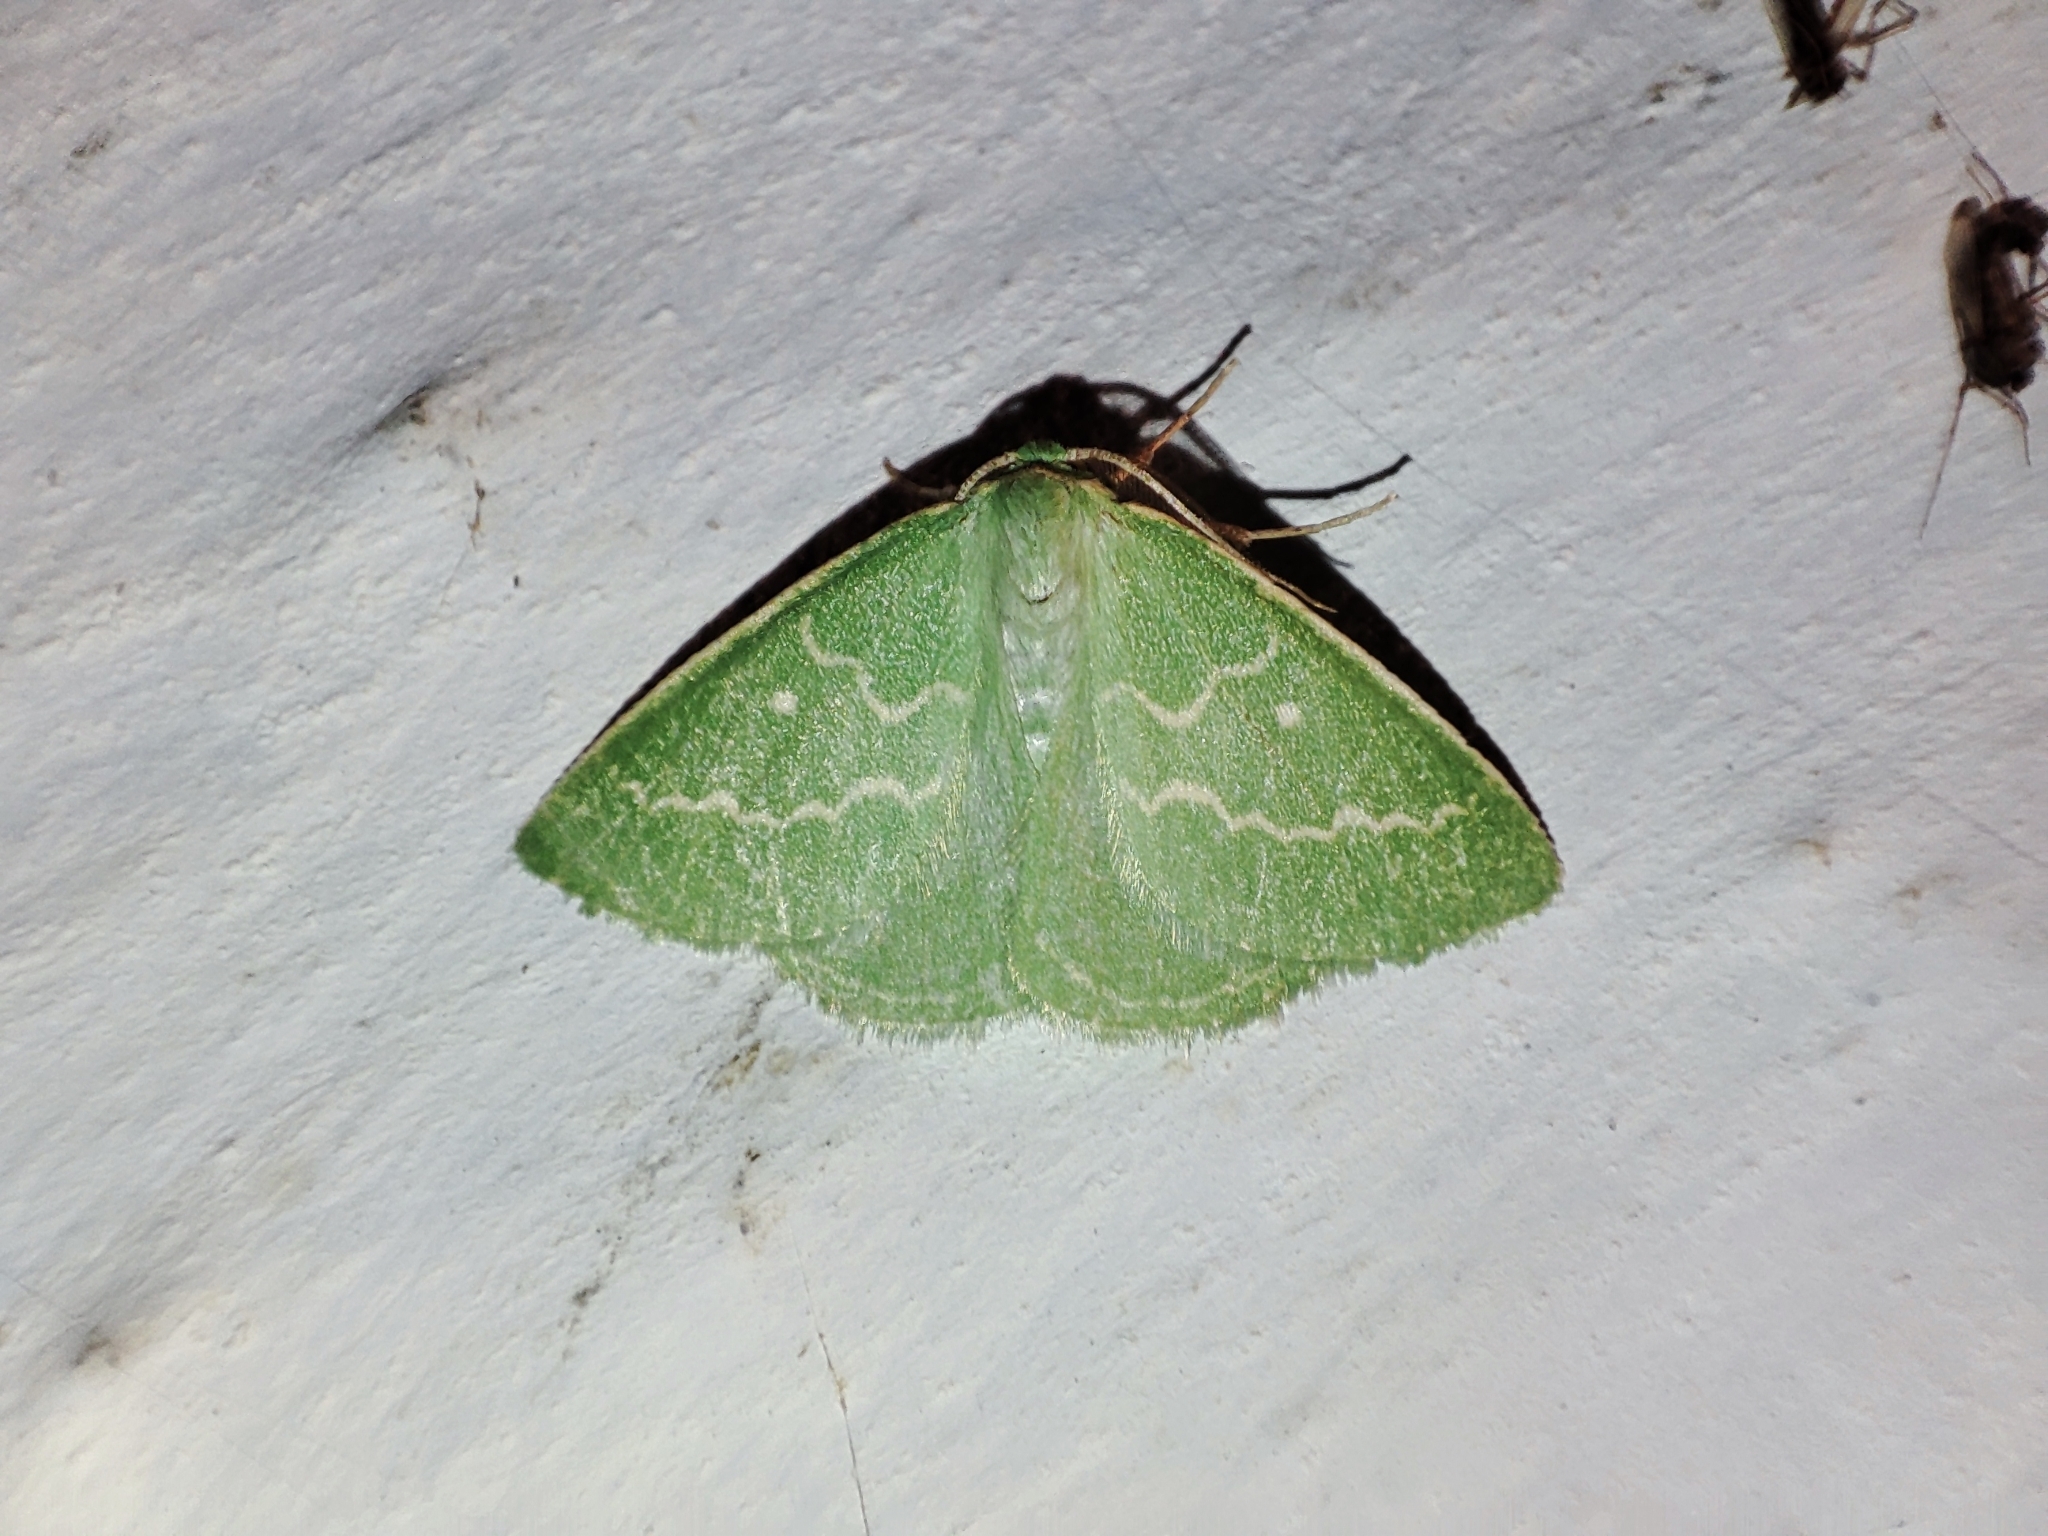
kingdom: Animalia
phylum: Arthropoda
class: Insecta
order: Lepidoptera
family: Geometridae
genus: Thetidia
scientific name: Thetidia smaragdaria
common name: Essex emerald
